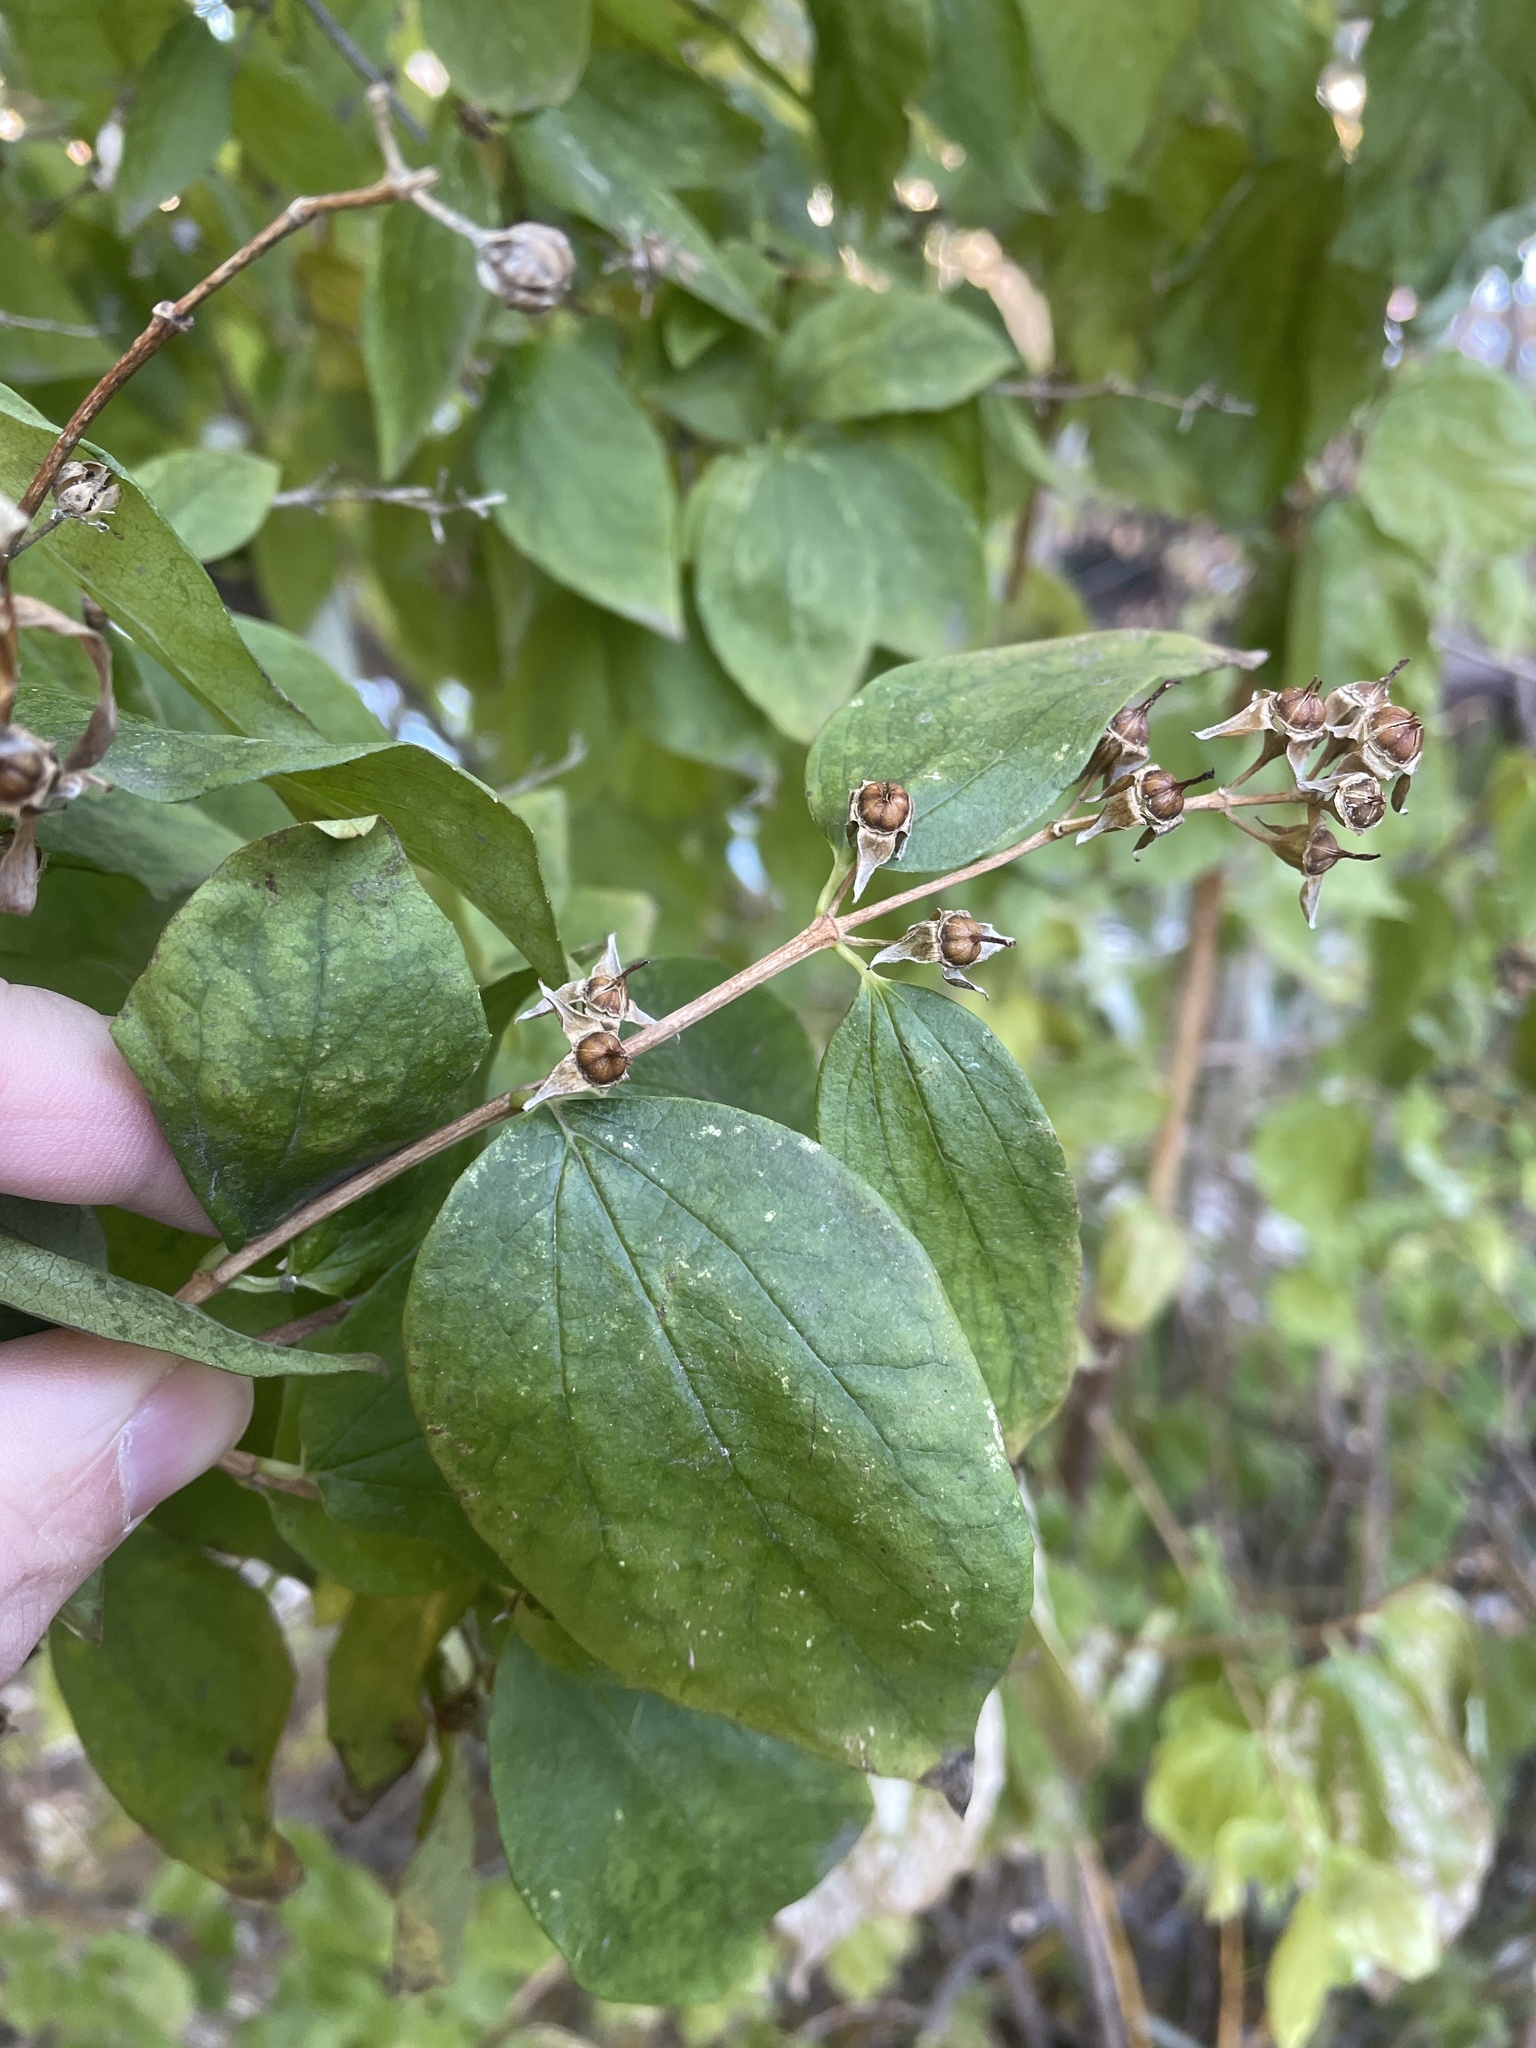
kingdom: Plantae
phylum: Tracheophyta
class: Magnoliopsida
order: Cornales
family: Hydrangeaceae
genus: Philadelphus
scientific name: Philadelphus lewisii
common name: Lewis's mock orange
